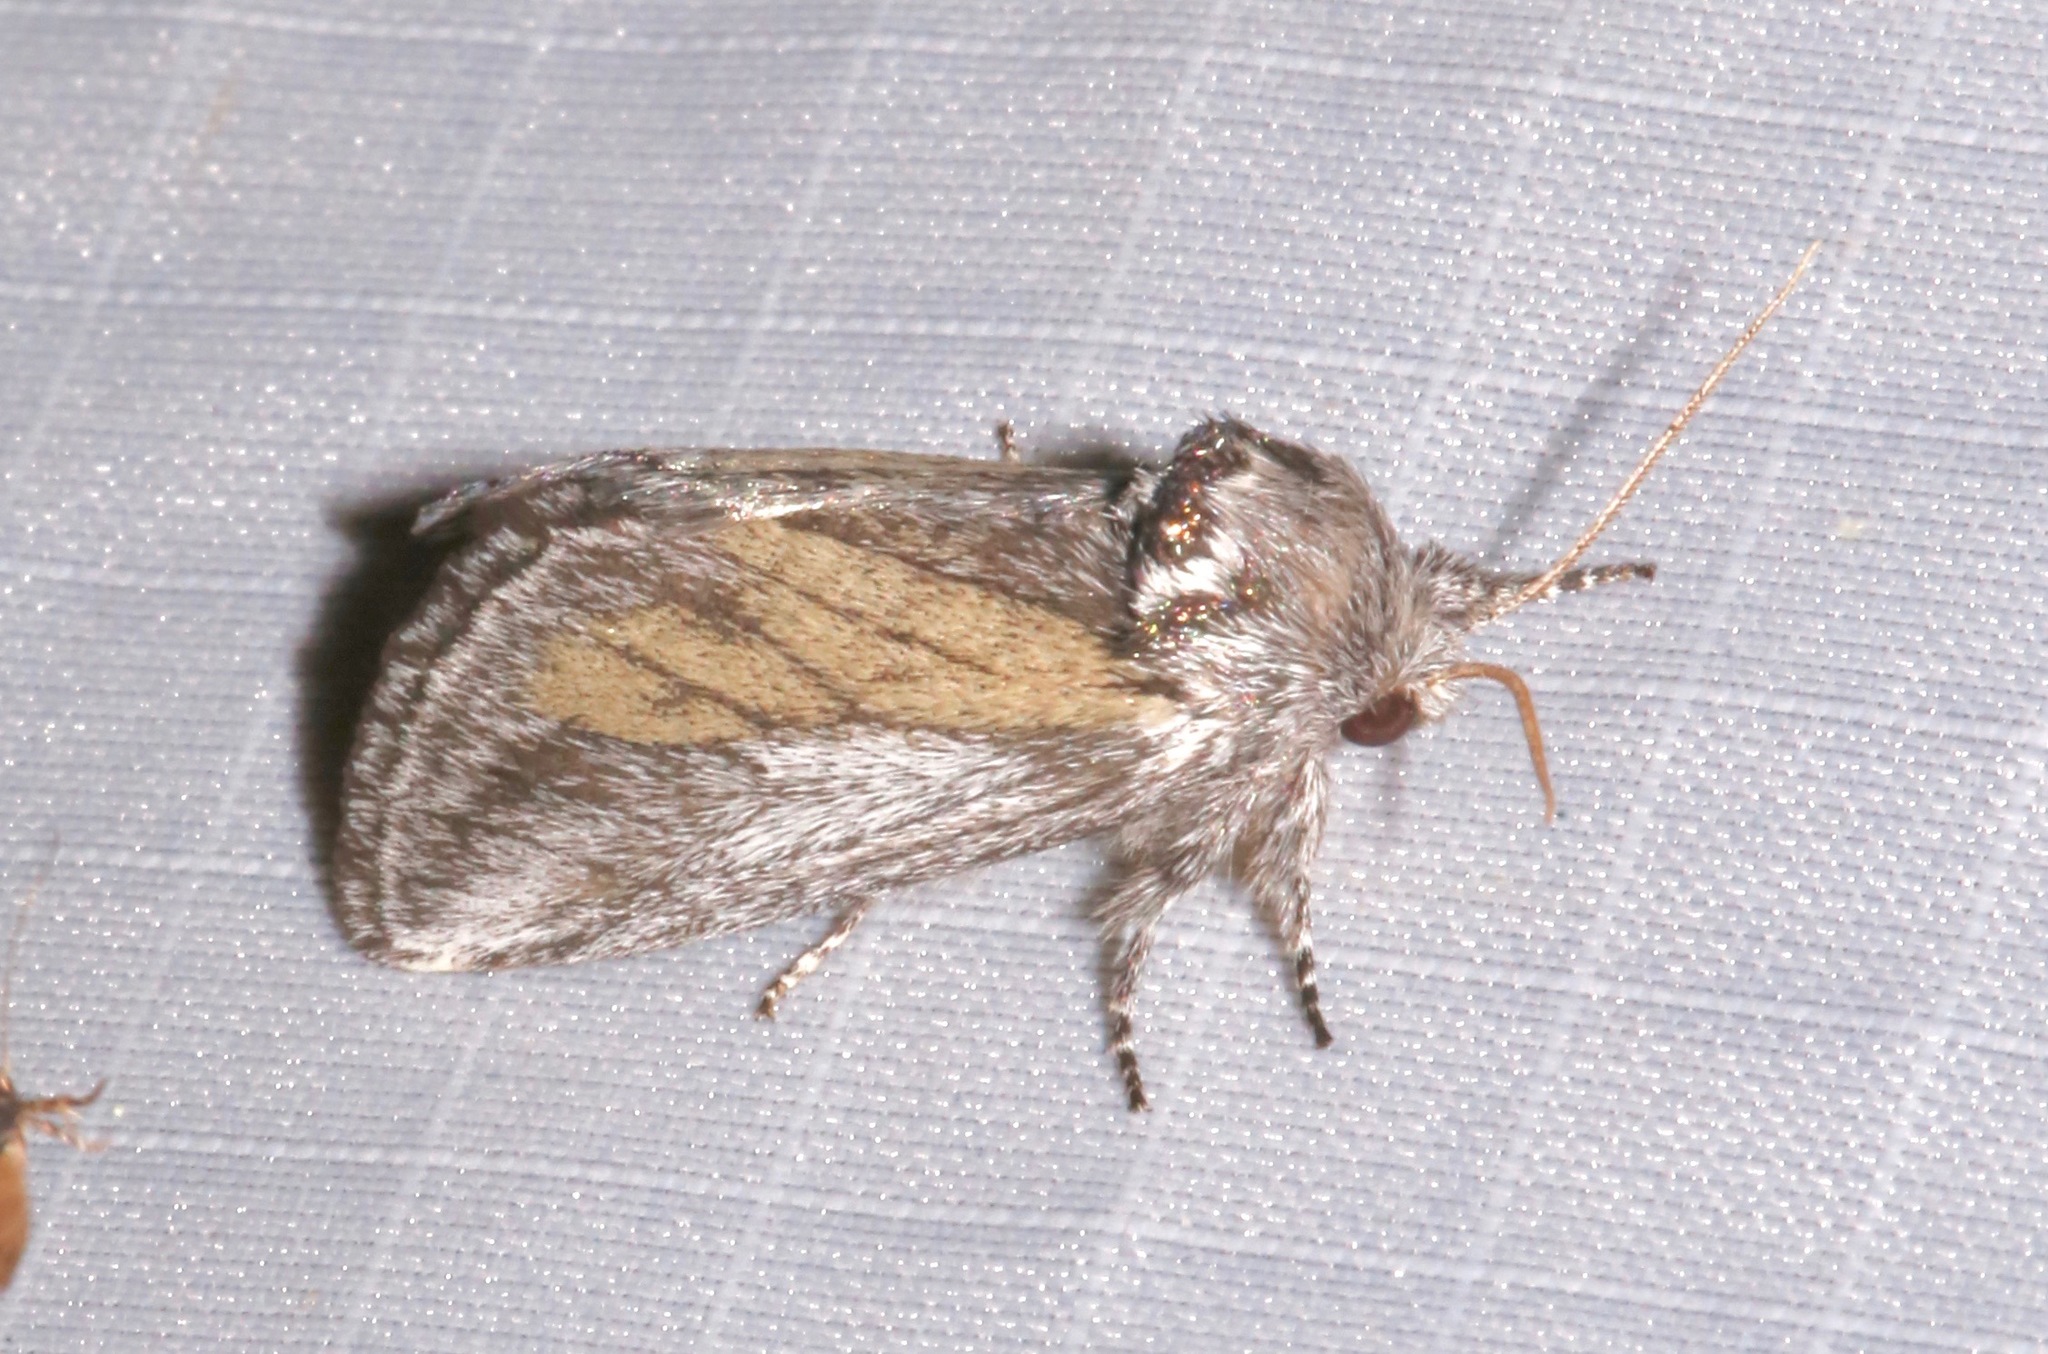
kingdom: Animalia
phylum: Arthropoda
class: Insecta
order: Lepidoptera
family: Notodontidae
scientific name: Notodontidae
